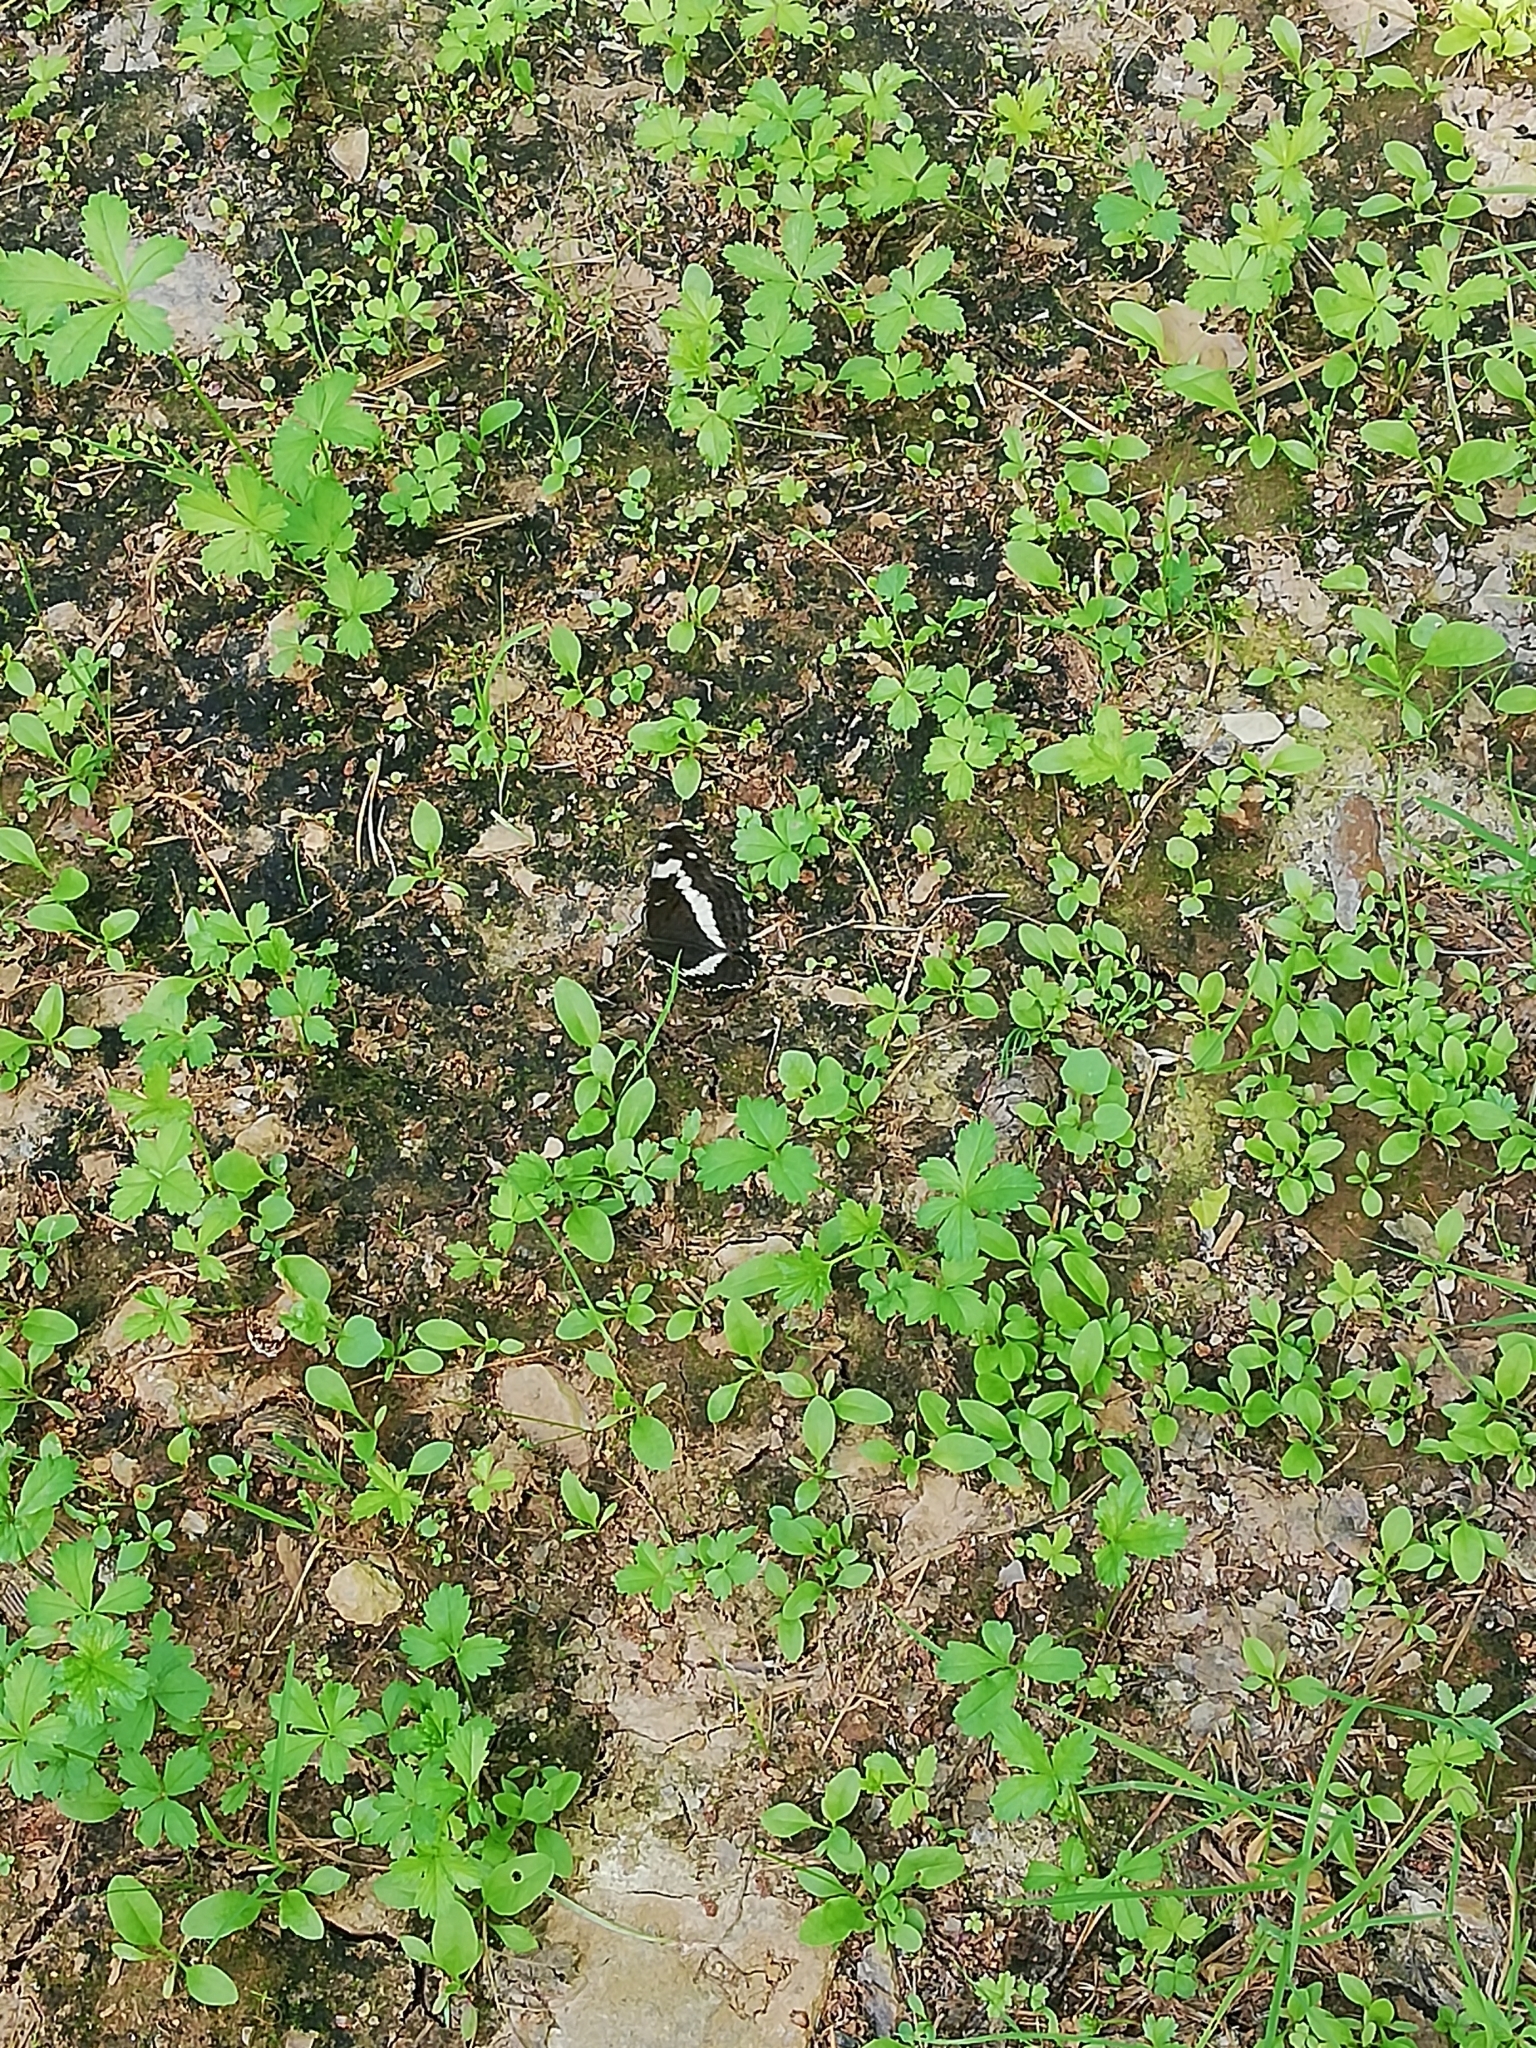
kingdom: Animalia
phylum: Arthropoda
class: Insecta
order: Lepidoptera
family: Nymphalidae
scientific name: Nymphalidae
